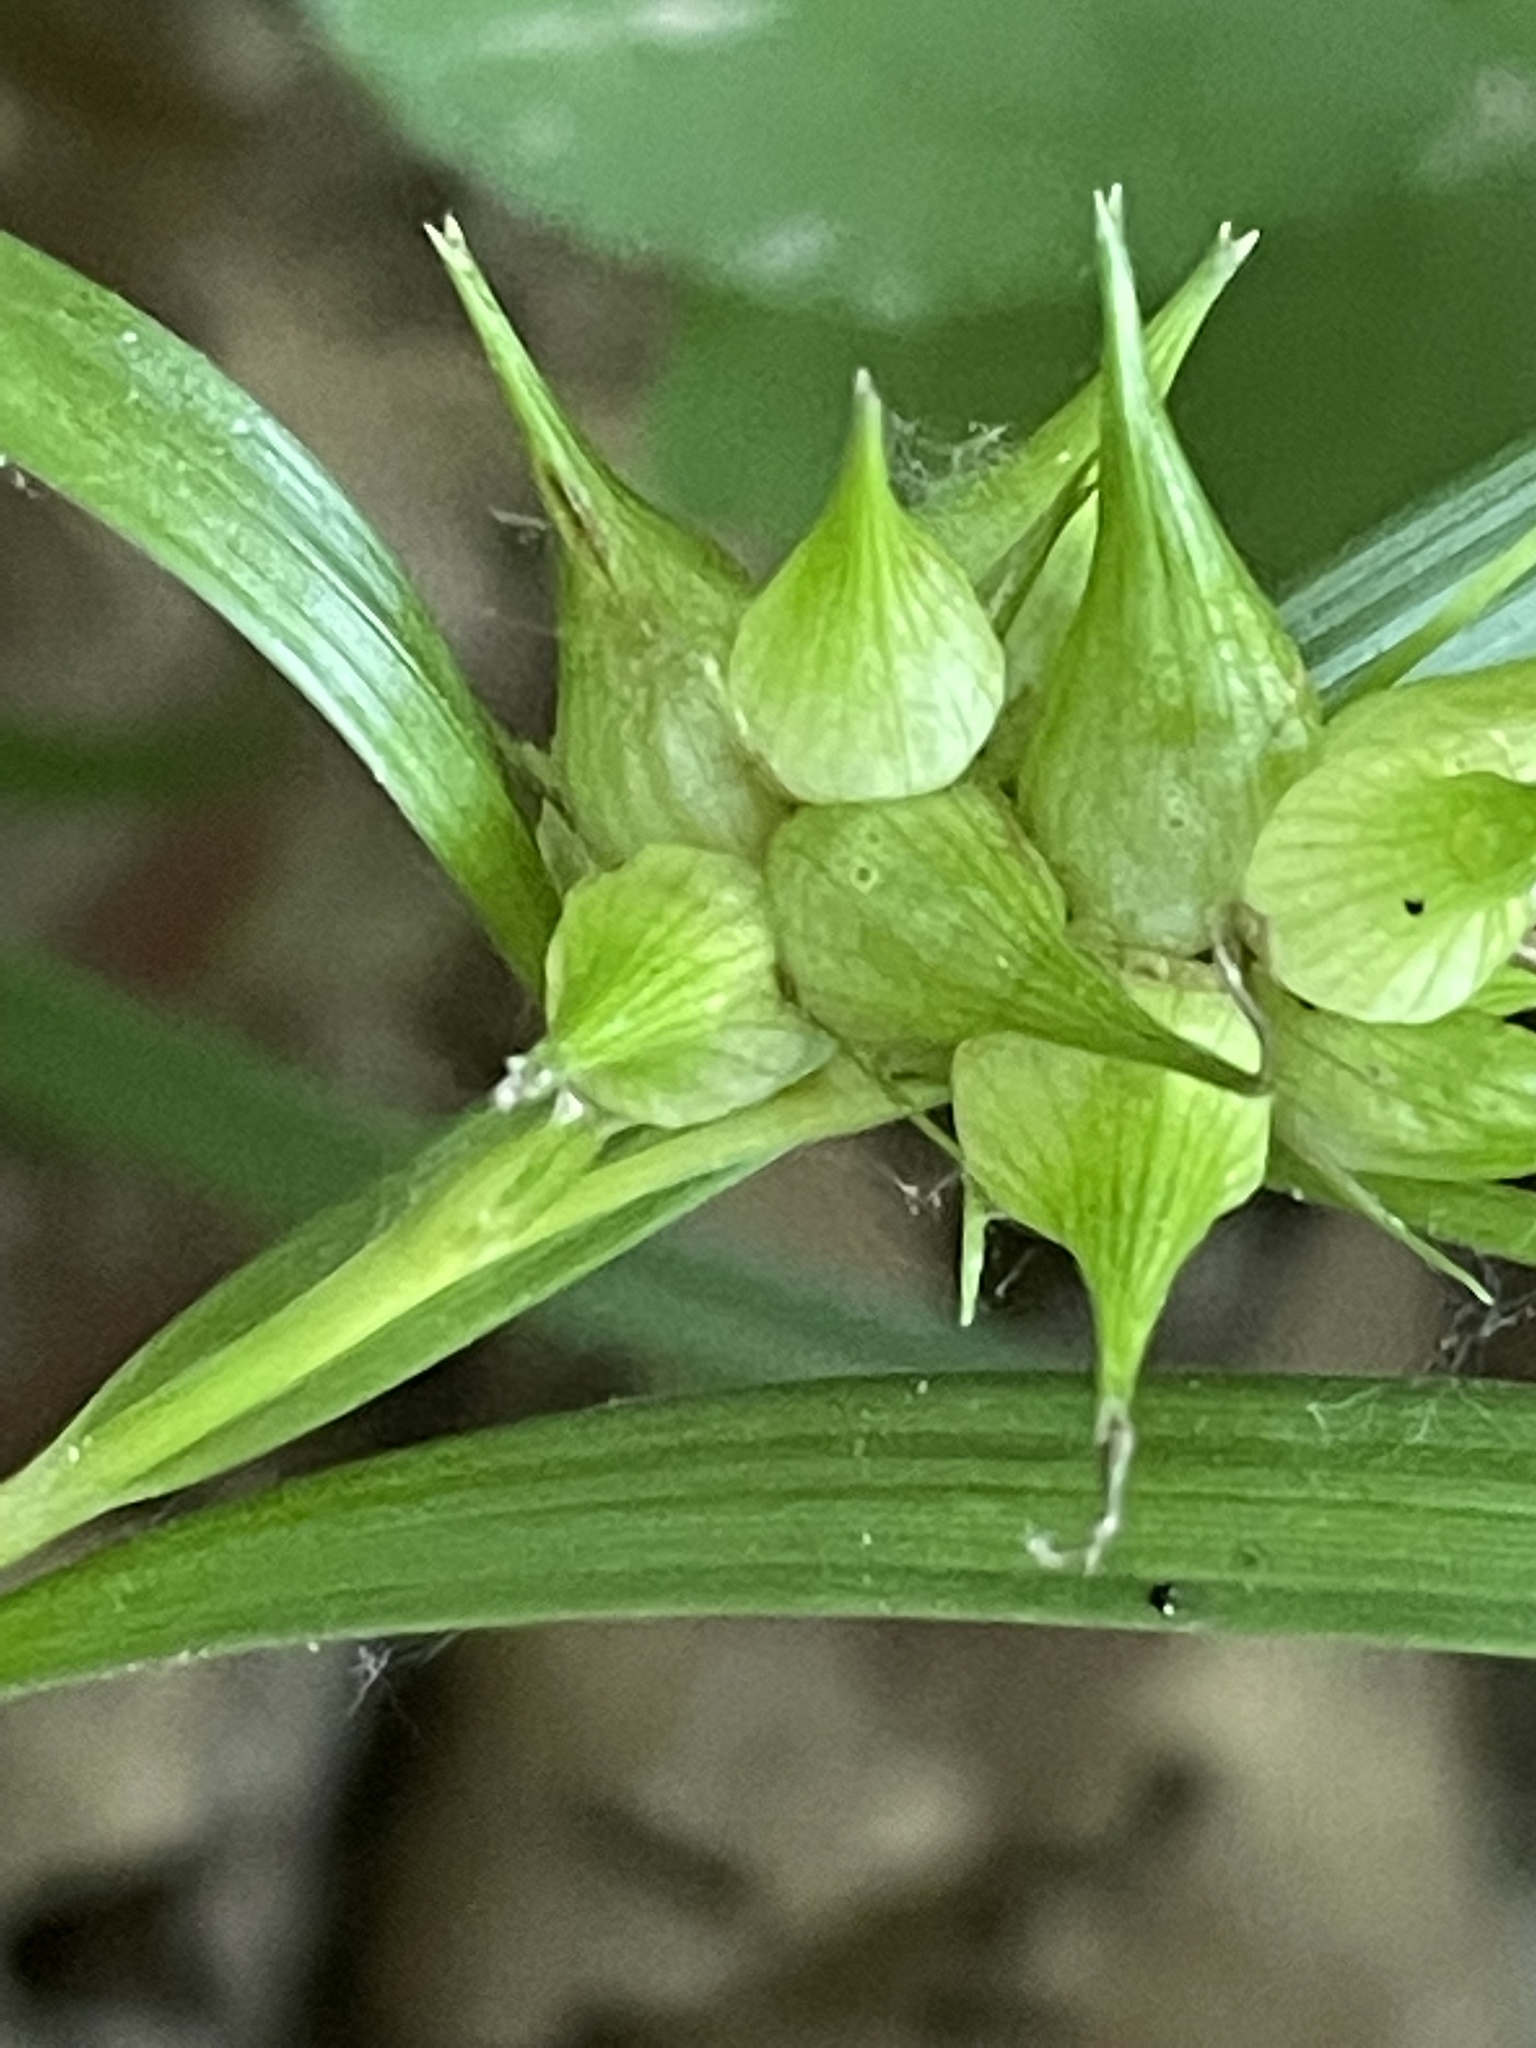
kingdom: Plantae
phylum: Tracheophyta
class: Liliopsida
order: Poales
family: Cyperaceae
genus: Carex
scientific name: Carex intumescens
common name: Greater bladder sedge
